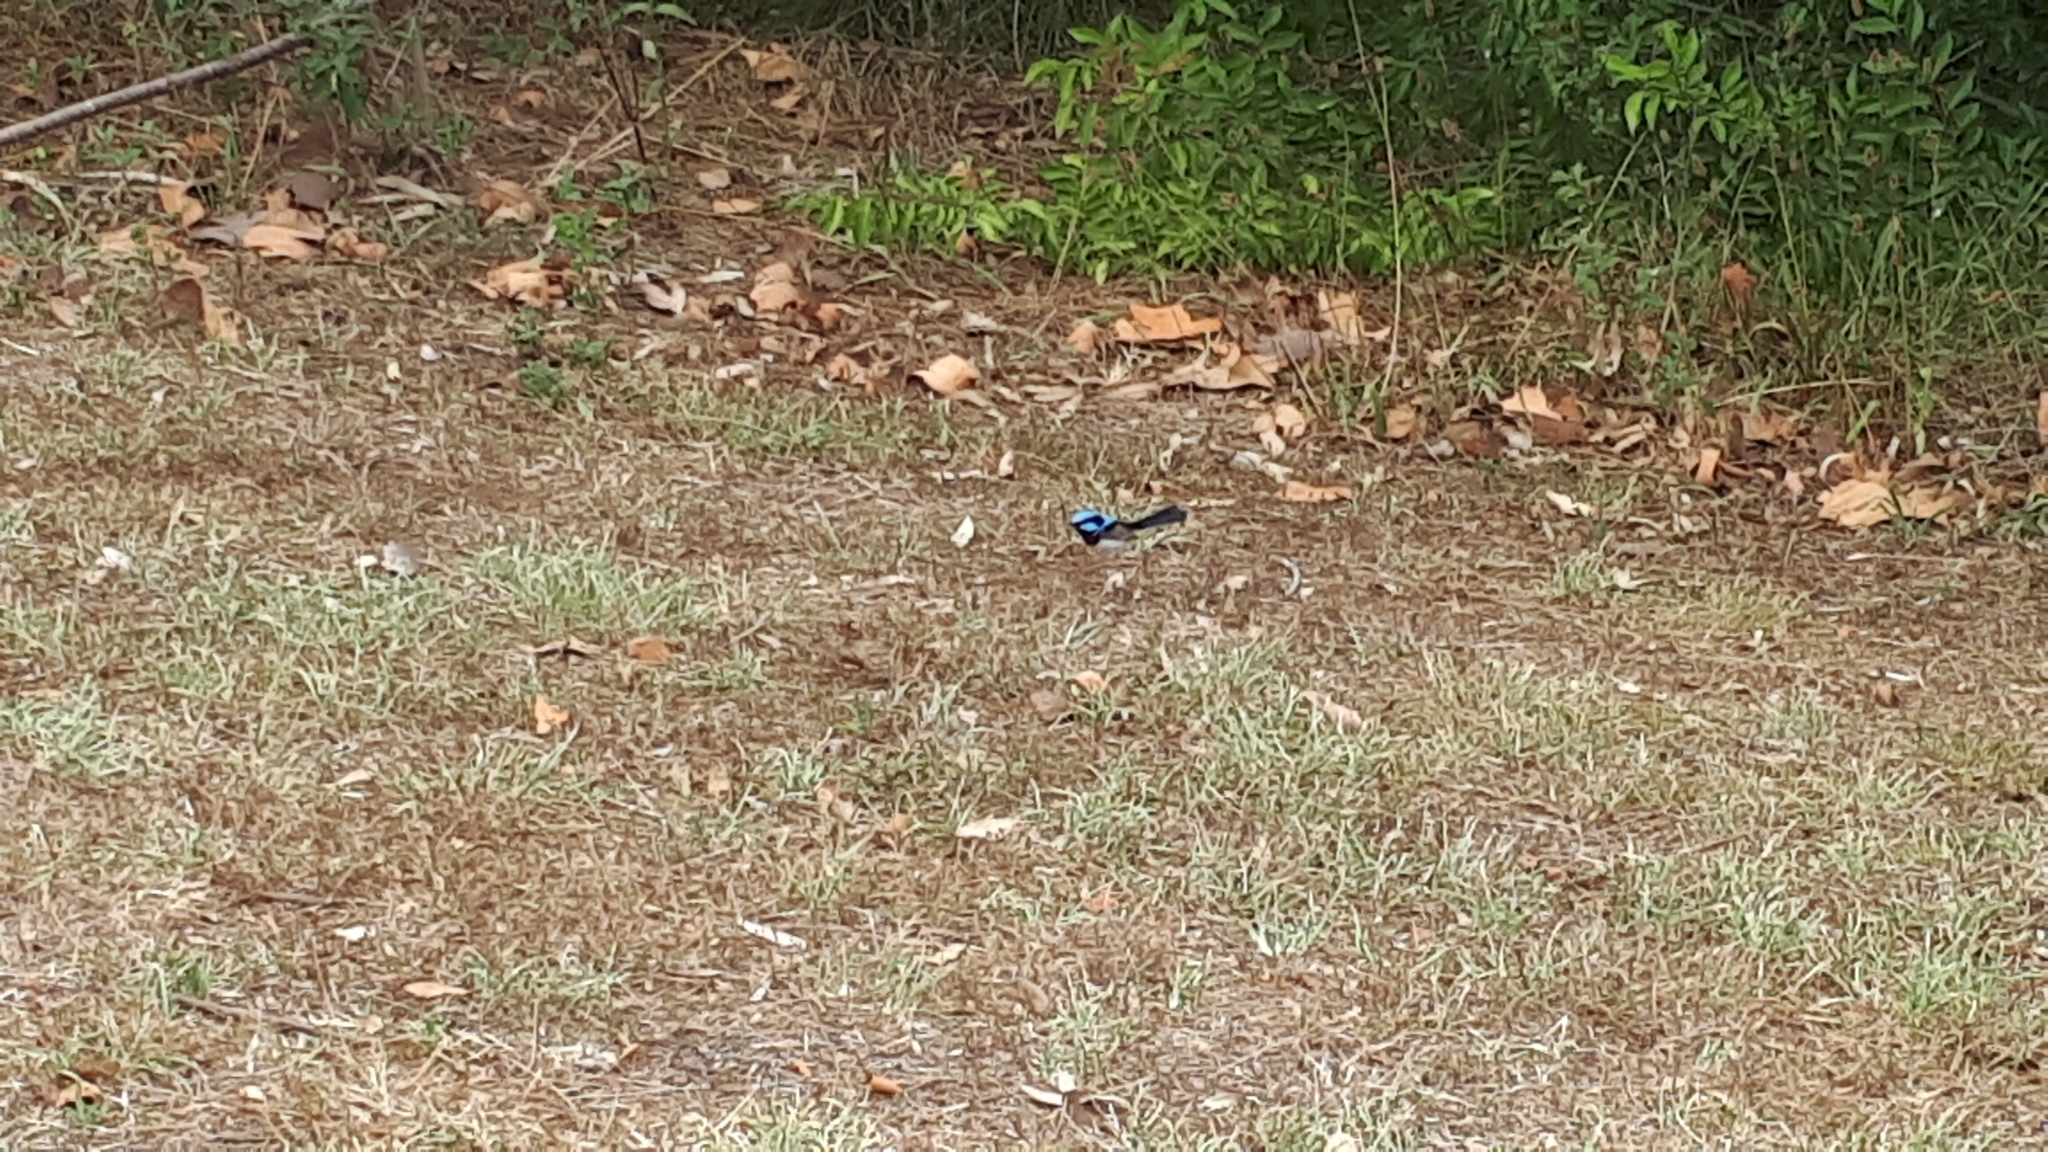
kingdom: Animalia
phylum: Chordata
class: Aves
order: Passeriformes
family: Maluridae
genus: Malurus
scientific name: Malurus cyaneus
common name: Superb fairywren
